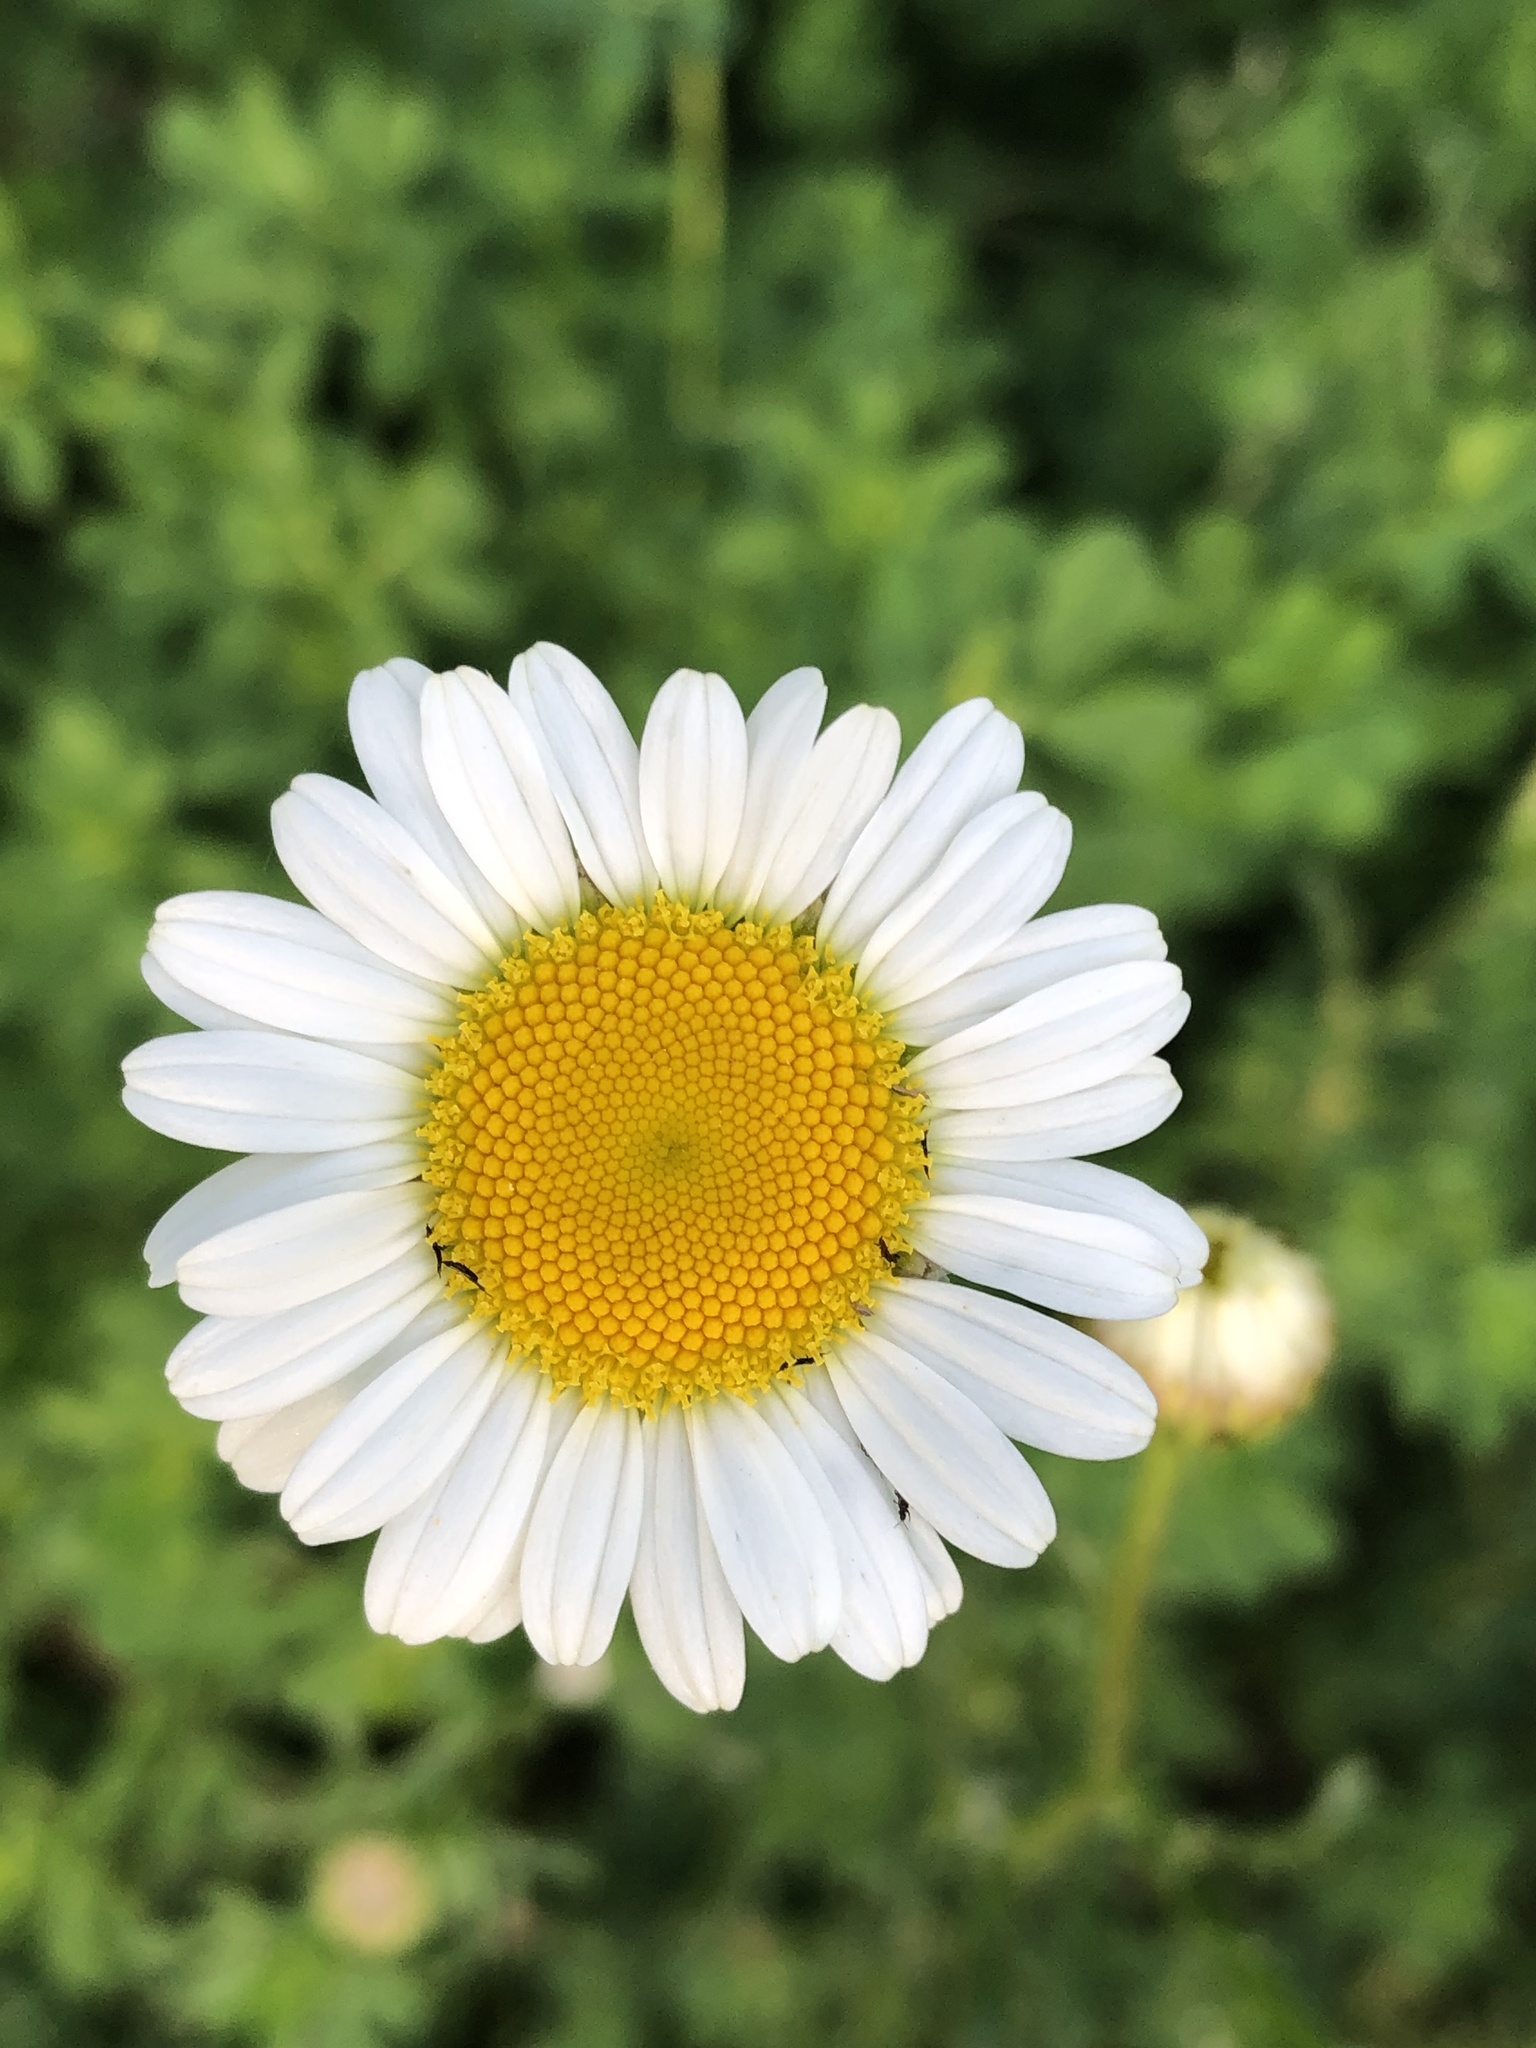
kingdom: Plantae
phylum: Tracheophyta
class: Magnoliopsida
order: Asterales
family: Asteraceae
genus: Leucanthemum
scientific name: Leucanthemum vulgare
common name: Oxeye daisy
